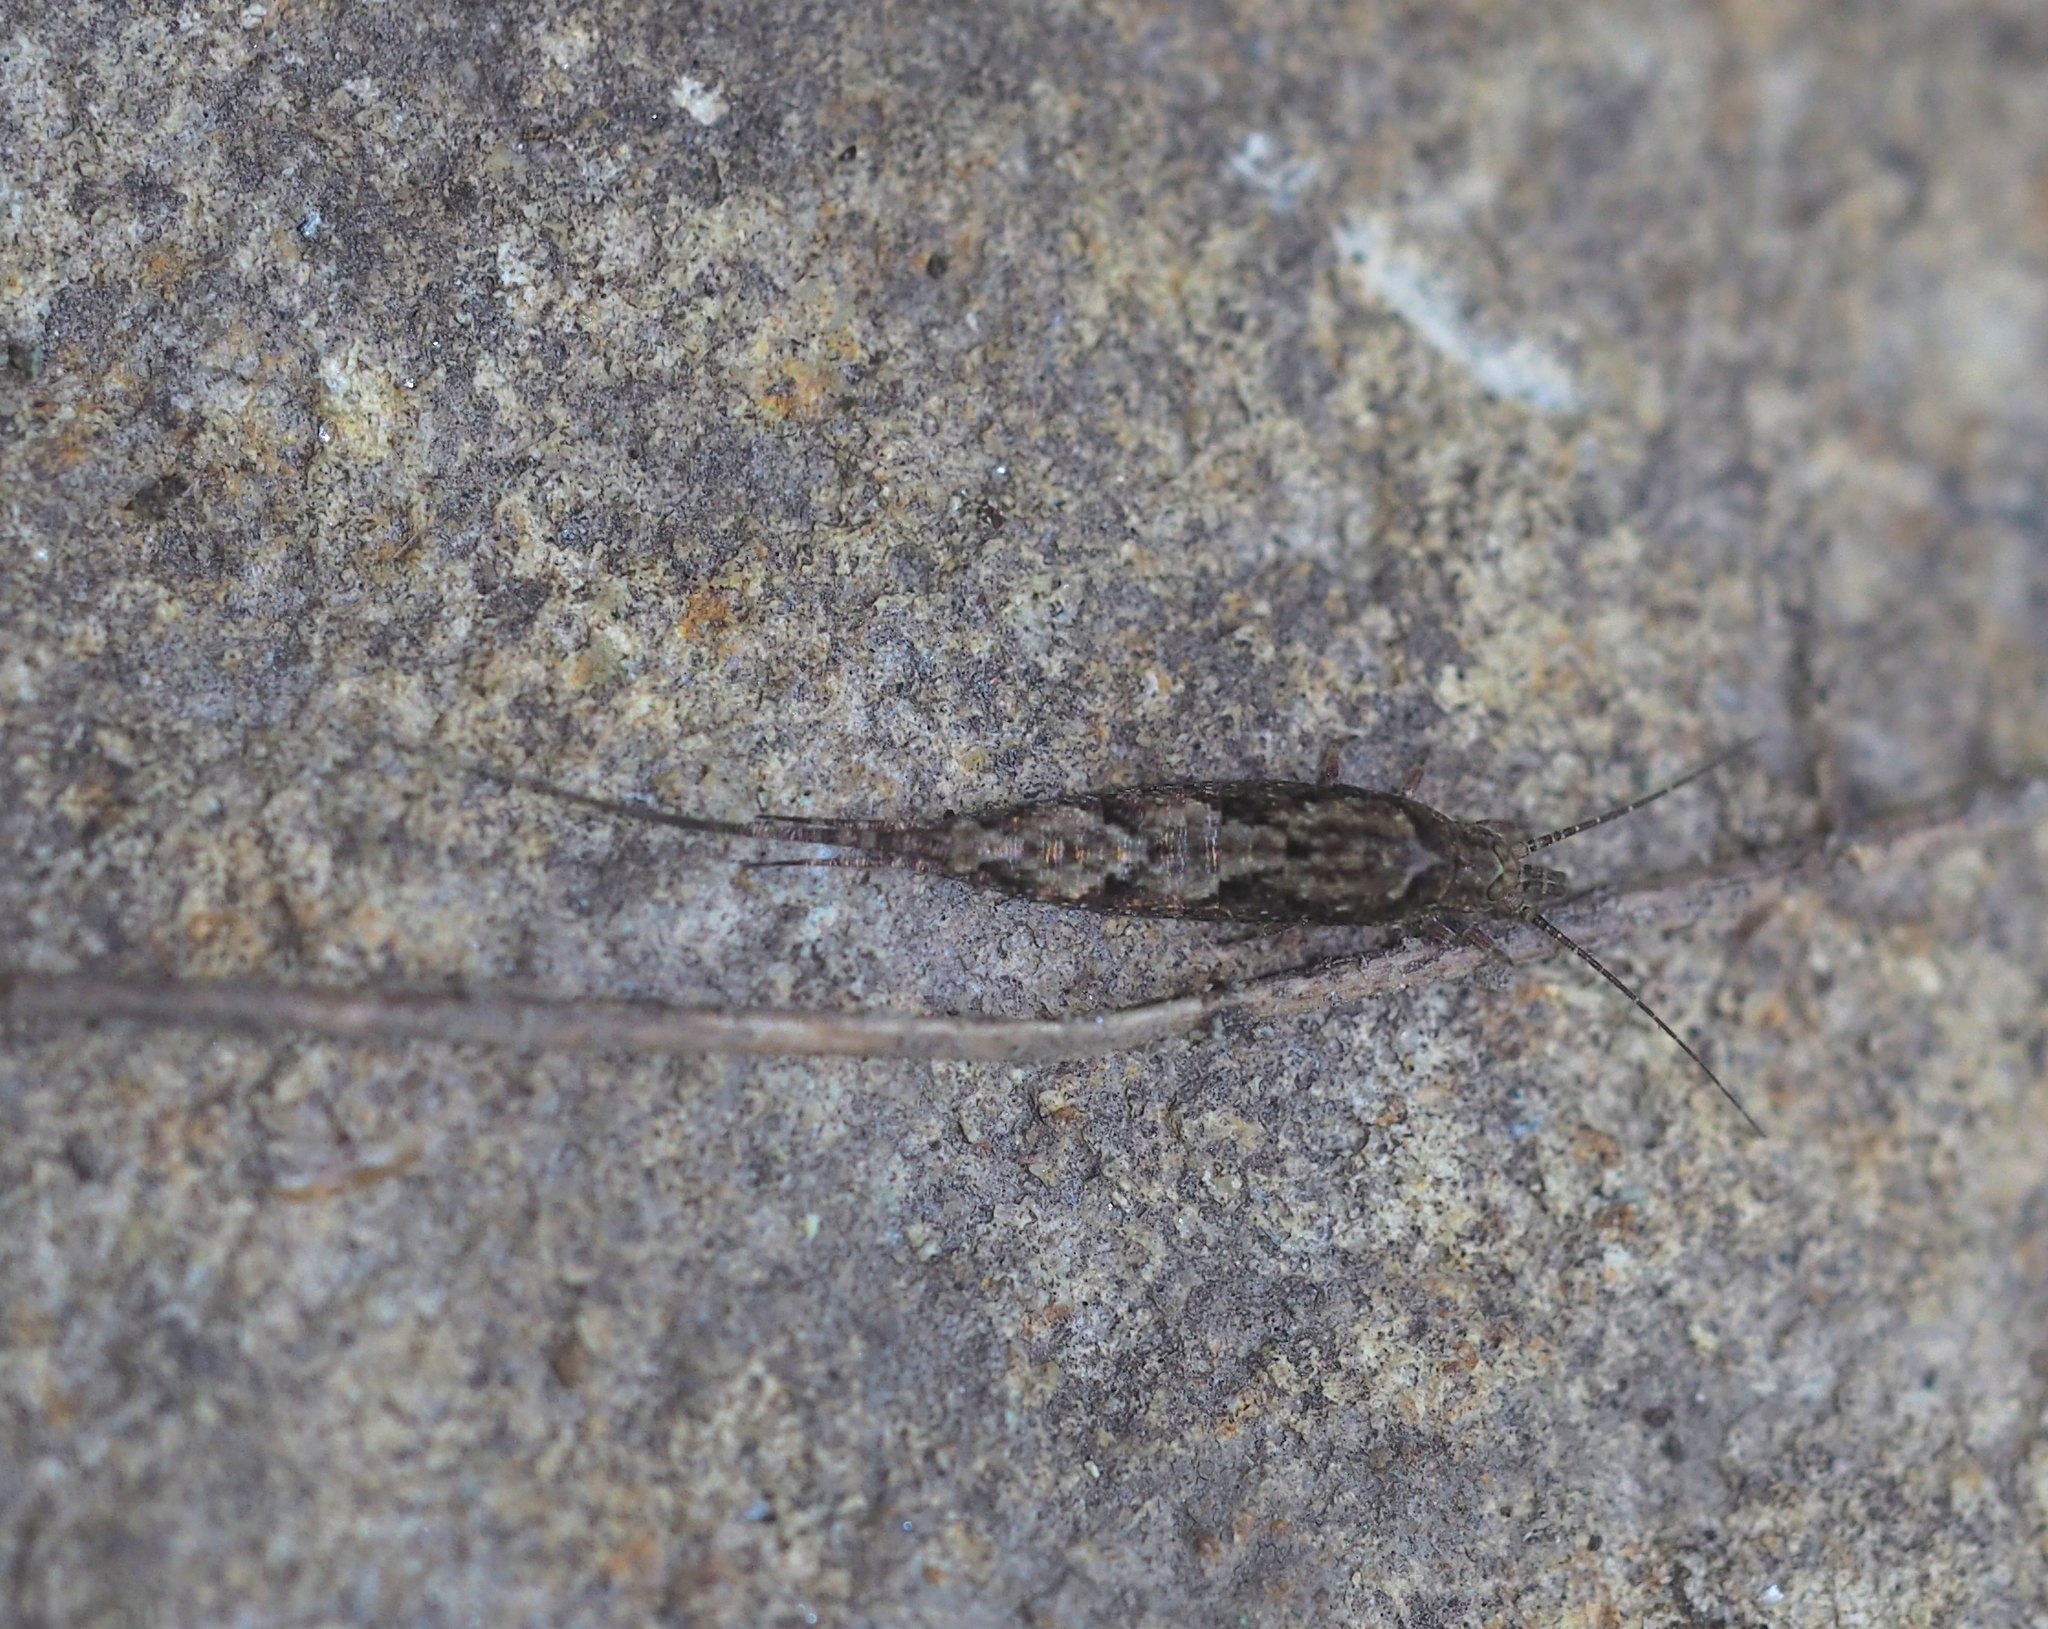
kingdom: Animalia
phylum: Arthropoda
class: Insecta
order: Archaeognatha
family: Machilidae
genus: Lepismachilis
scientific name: Lepismachilis y-signata
